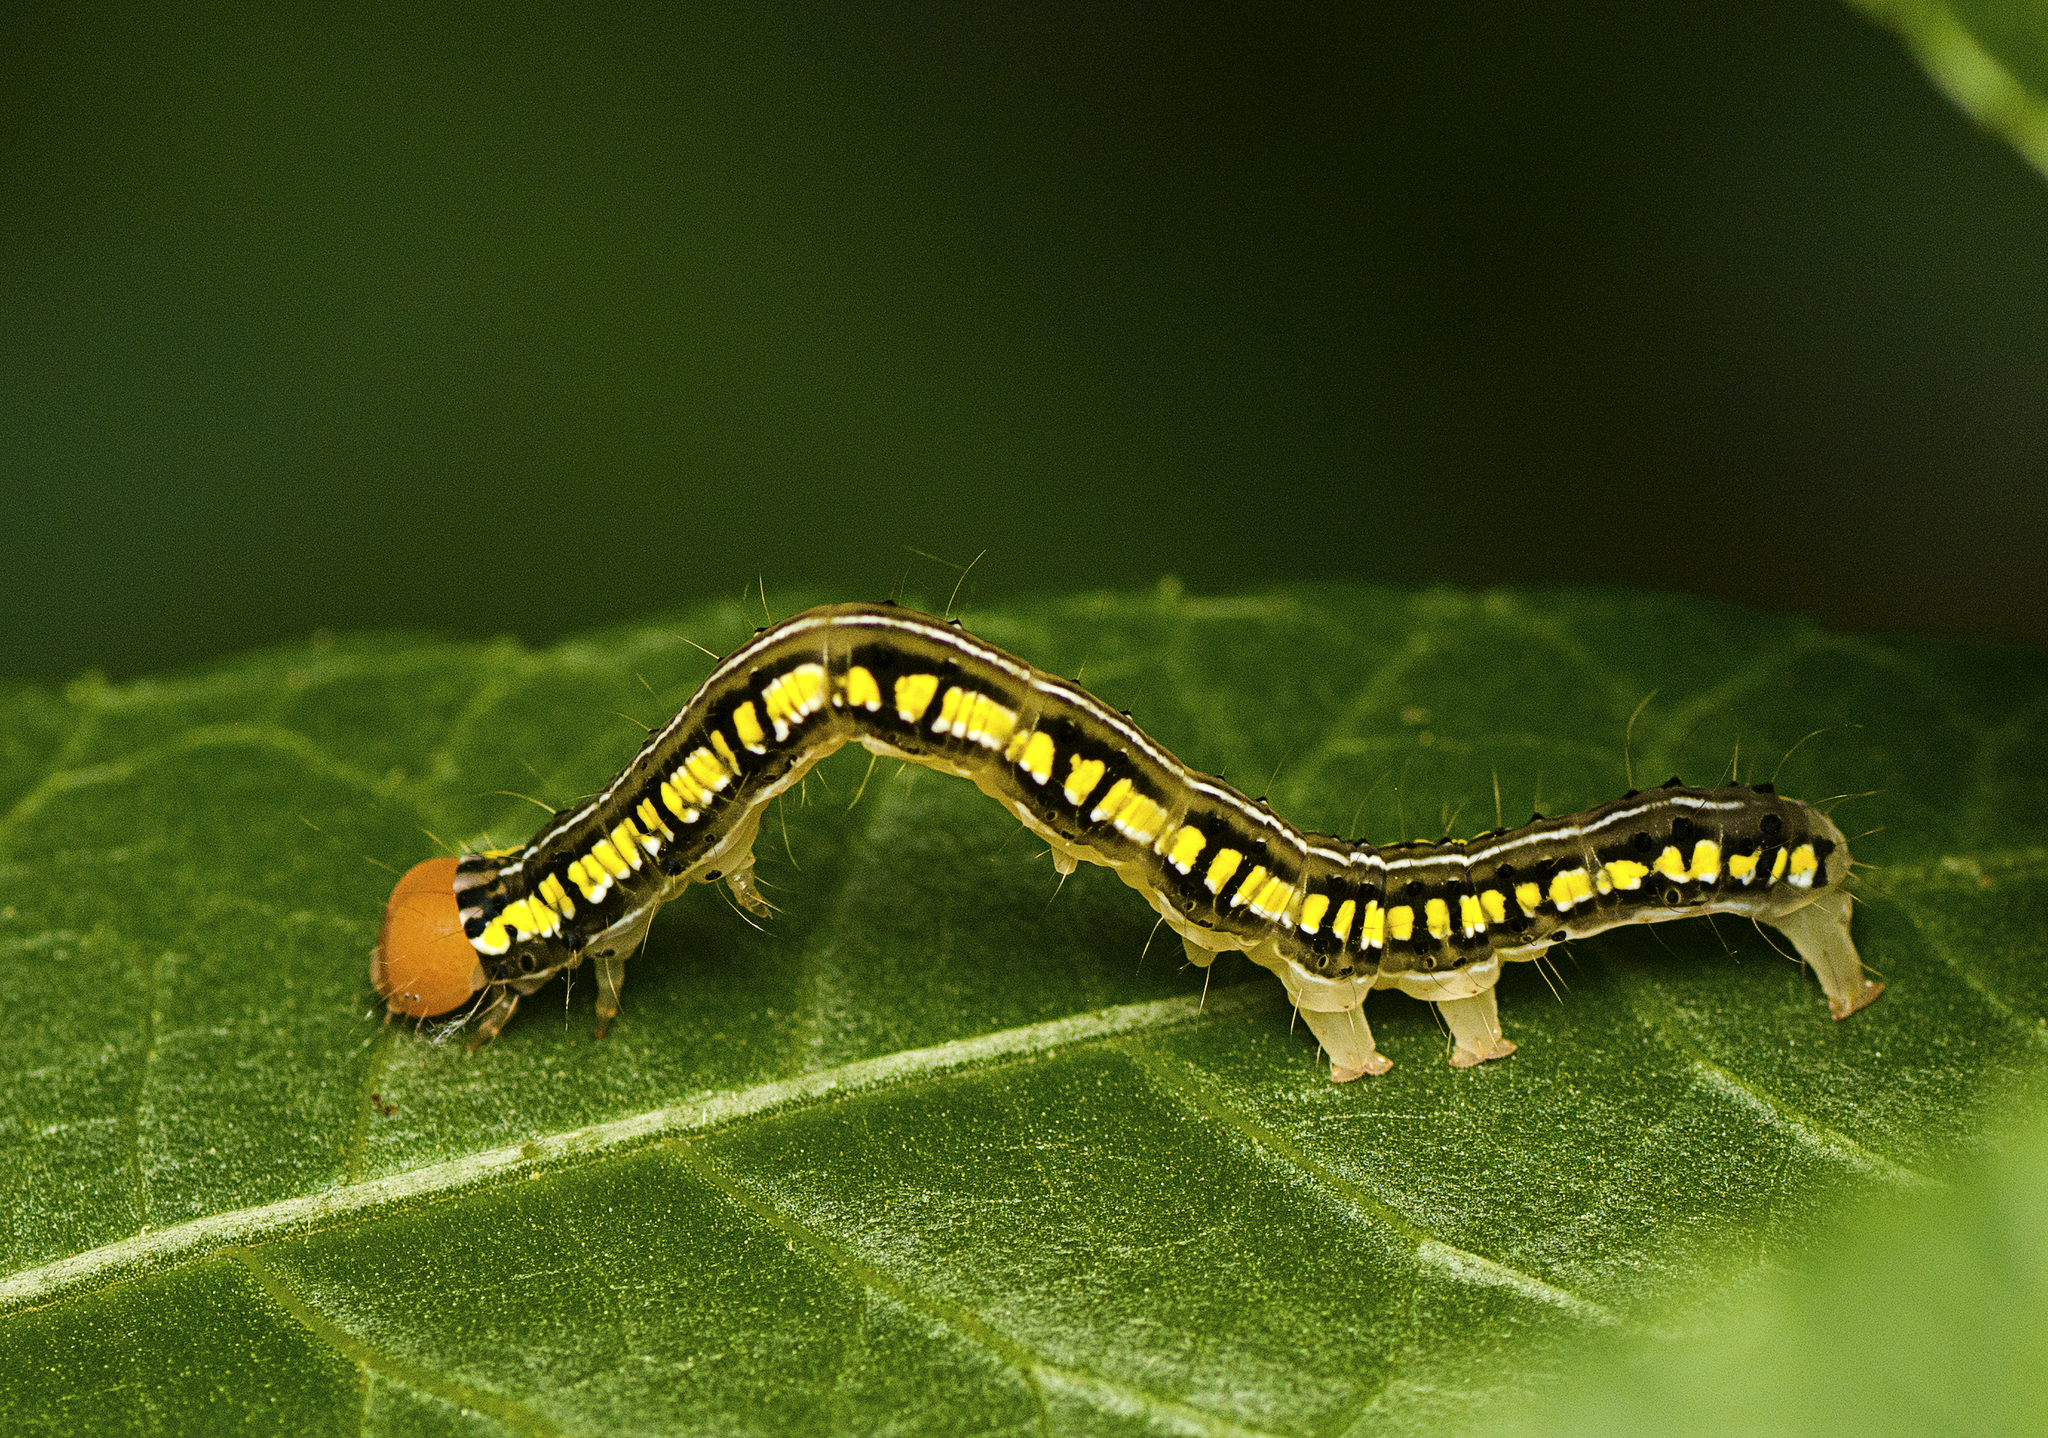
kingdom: Animalia
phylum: Arthropoda
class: Insecta
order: Lepidoptera
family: Erebidae
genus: Rusicada
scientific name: Rusicada combinans
